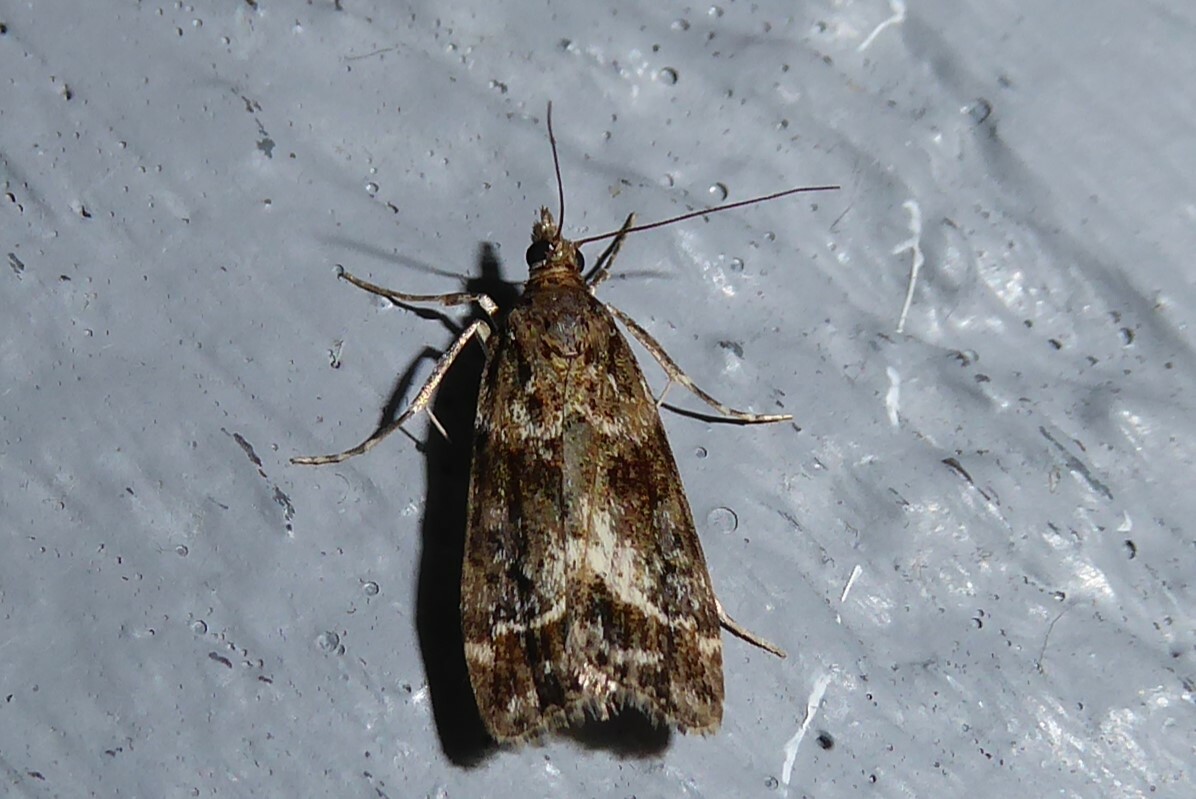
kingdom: Animalia
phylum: Arthropoda
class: Insecta
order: Lepidoptera
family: Crambidae
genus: Eudonia
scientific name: Eudonia legnota
